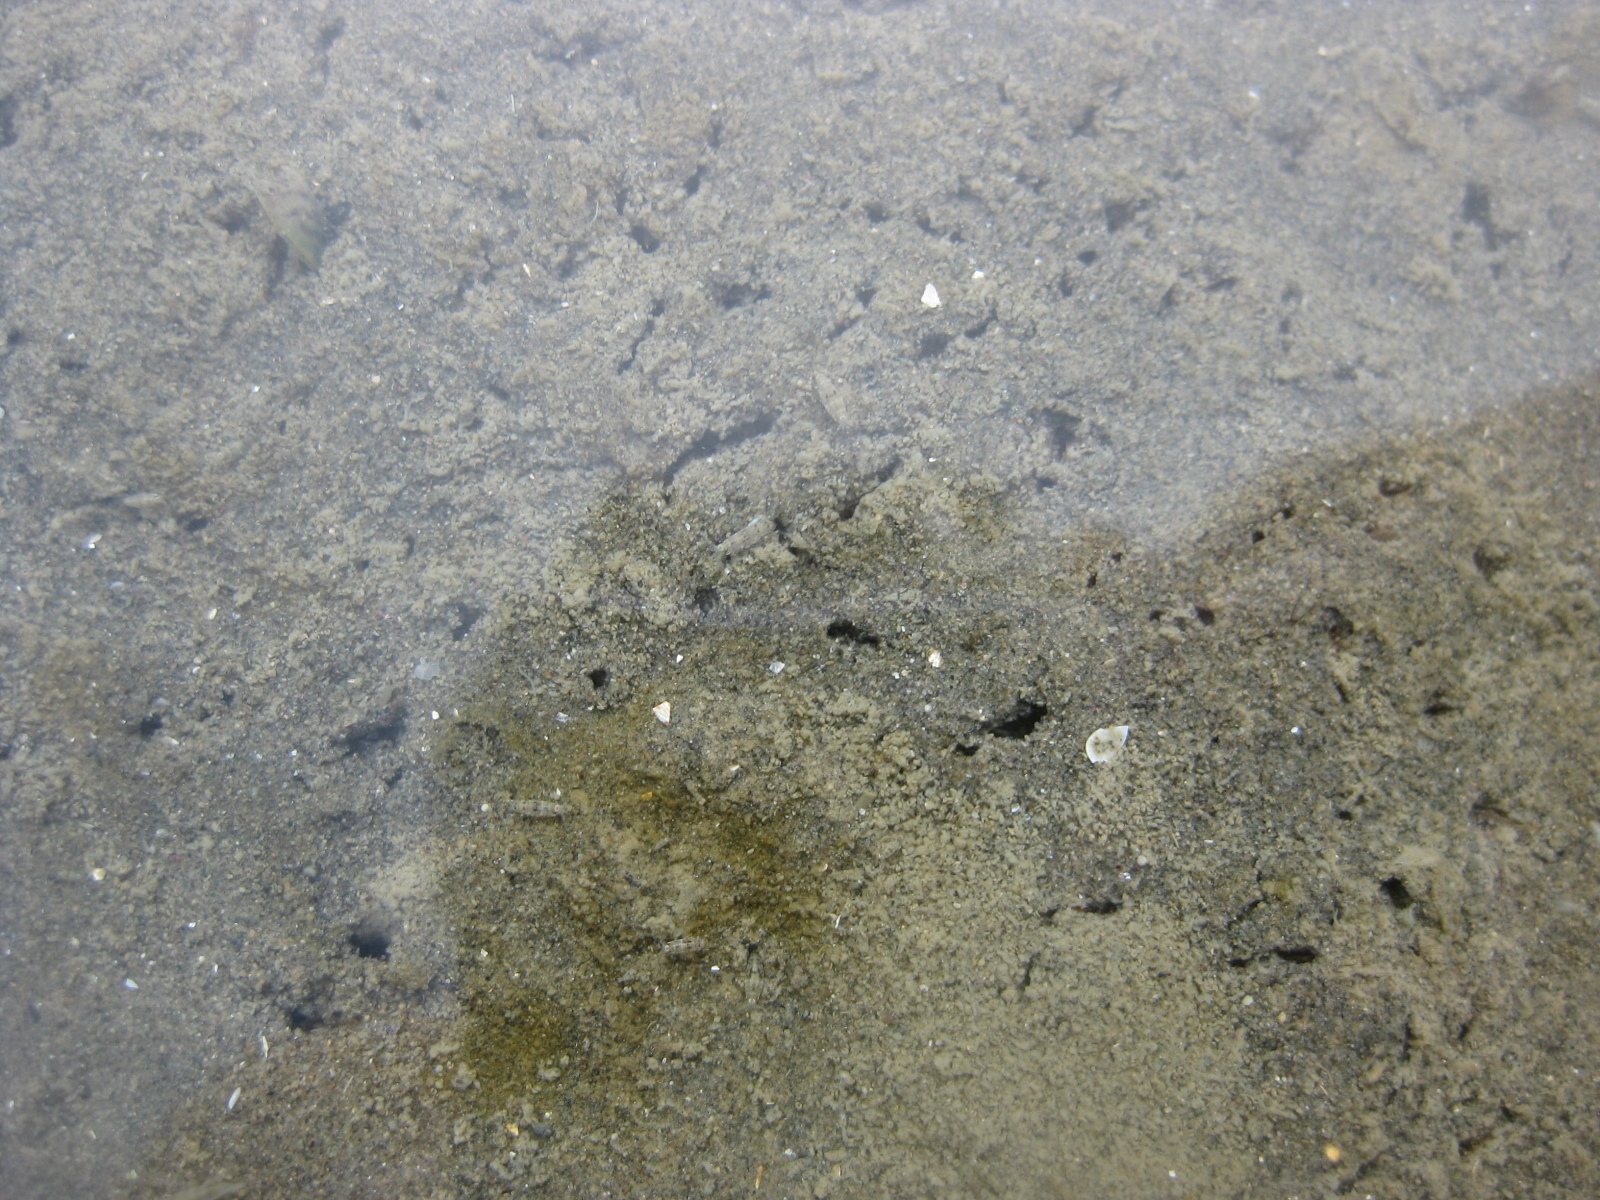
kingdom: Animalia
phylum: Mollusca
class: Bivalvia
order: Mytilida
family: Mytilidae
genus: Arcuatula
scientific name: Arcuatula senhousia
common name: Asian mussel
